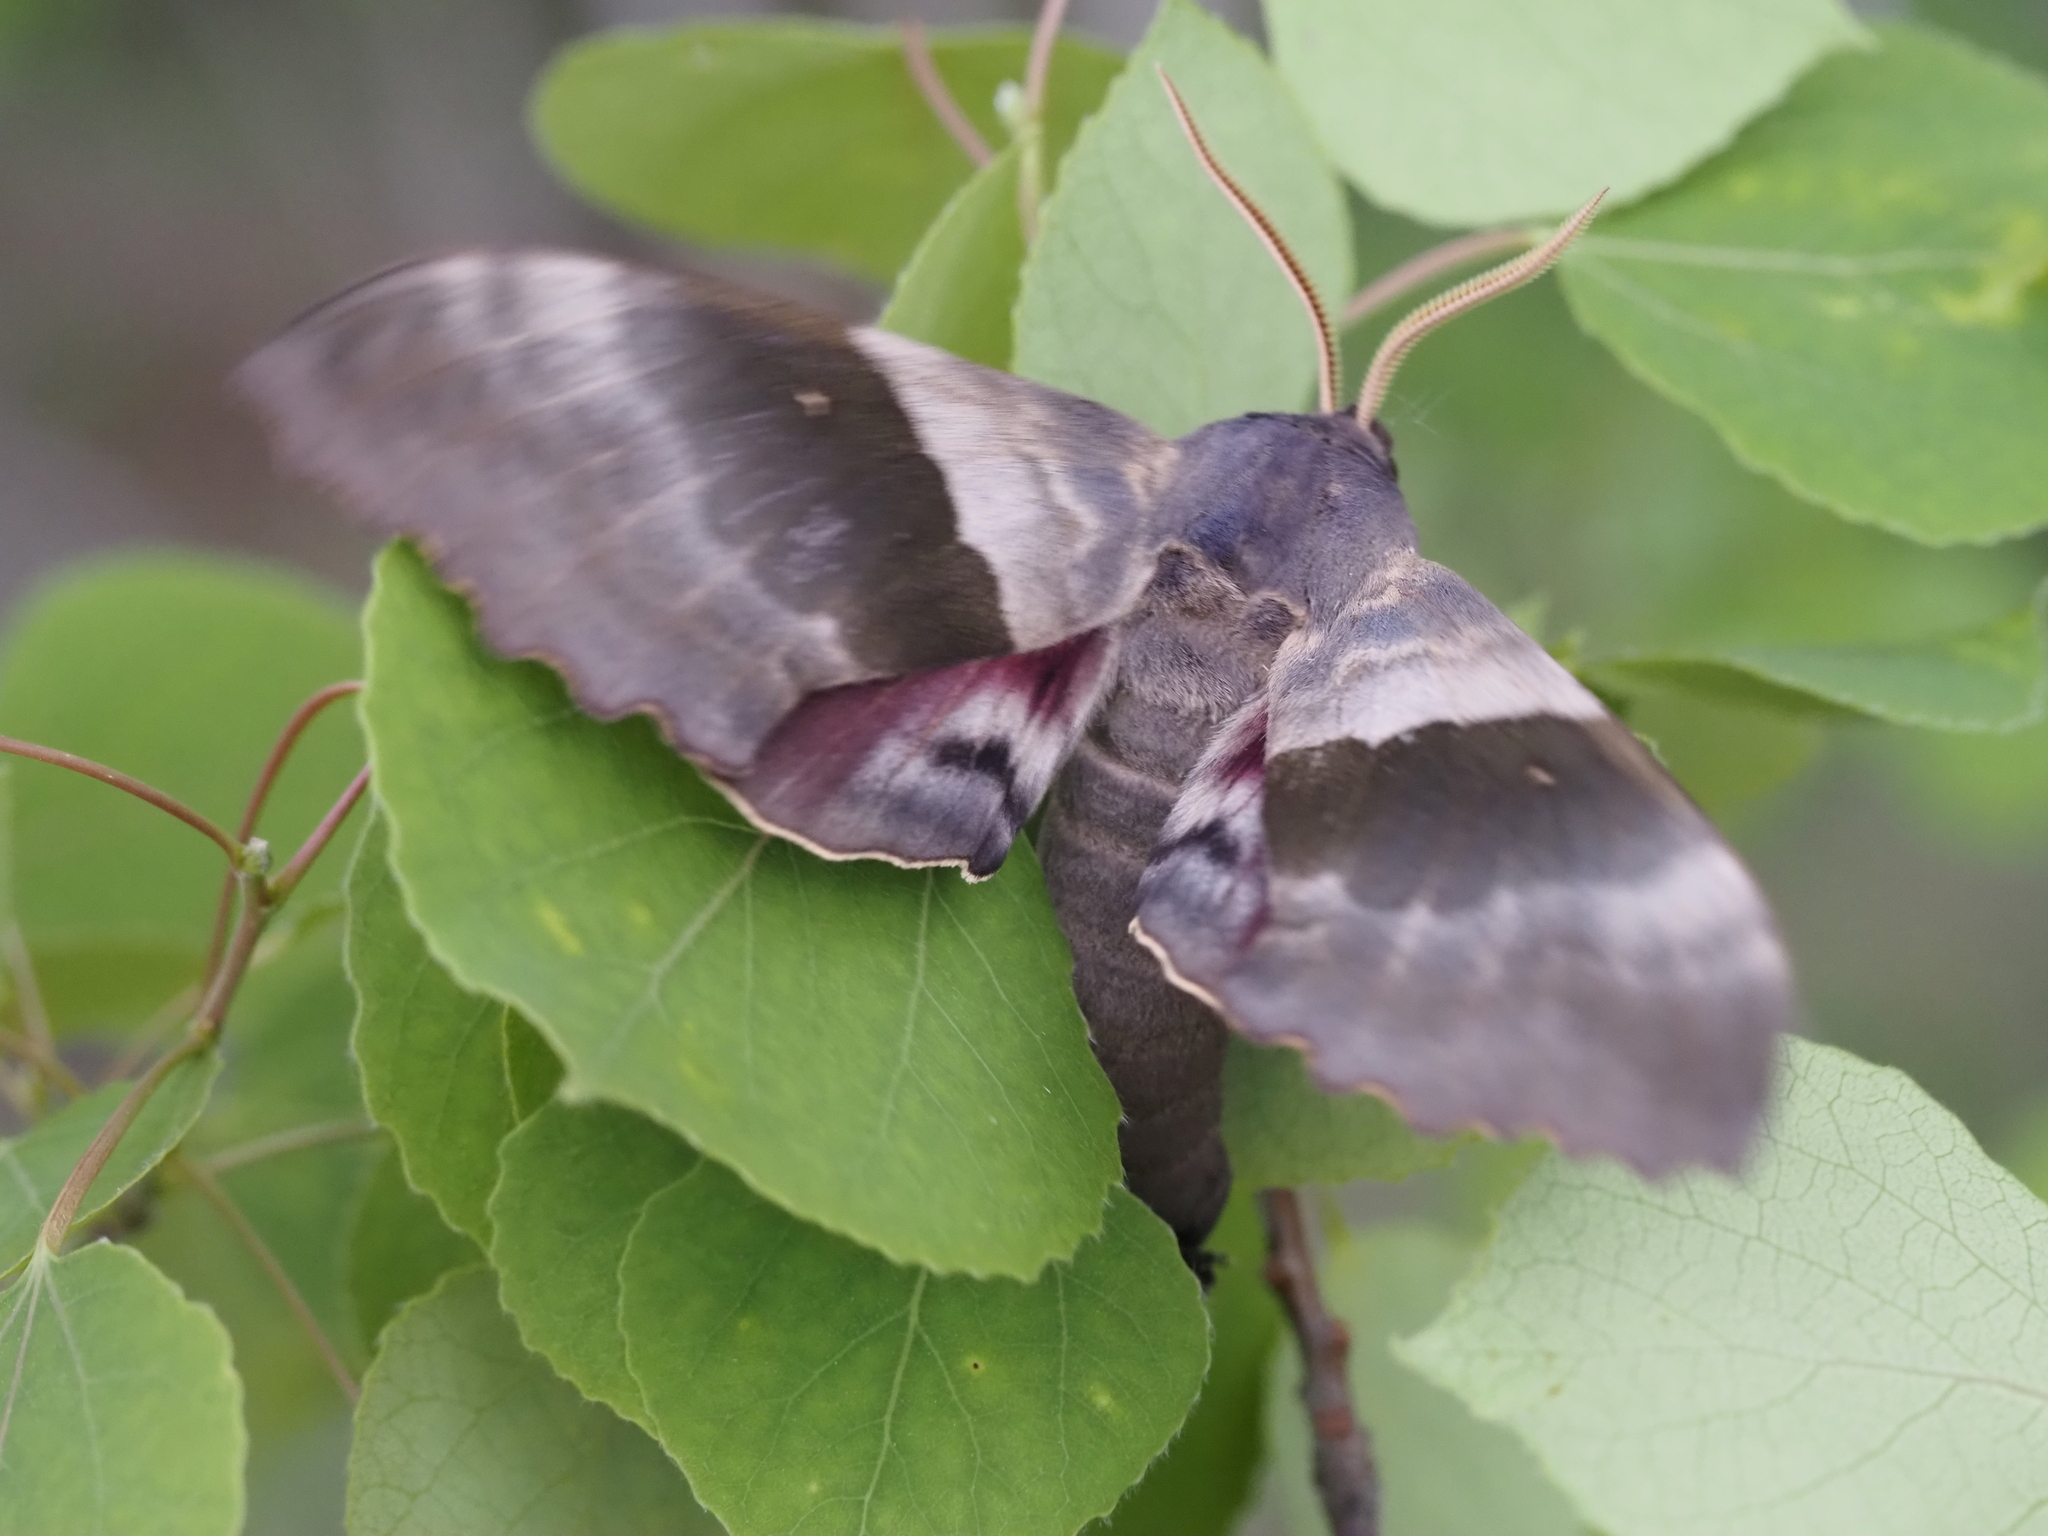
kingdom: Animalia
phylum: Arthropoda
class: Insecta
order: Lepidoptera
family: Sphingidae
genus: Pachysphinx
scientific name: Pachysphinx modesta
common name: Big poplar sphinx
